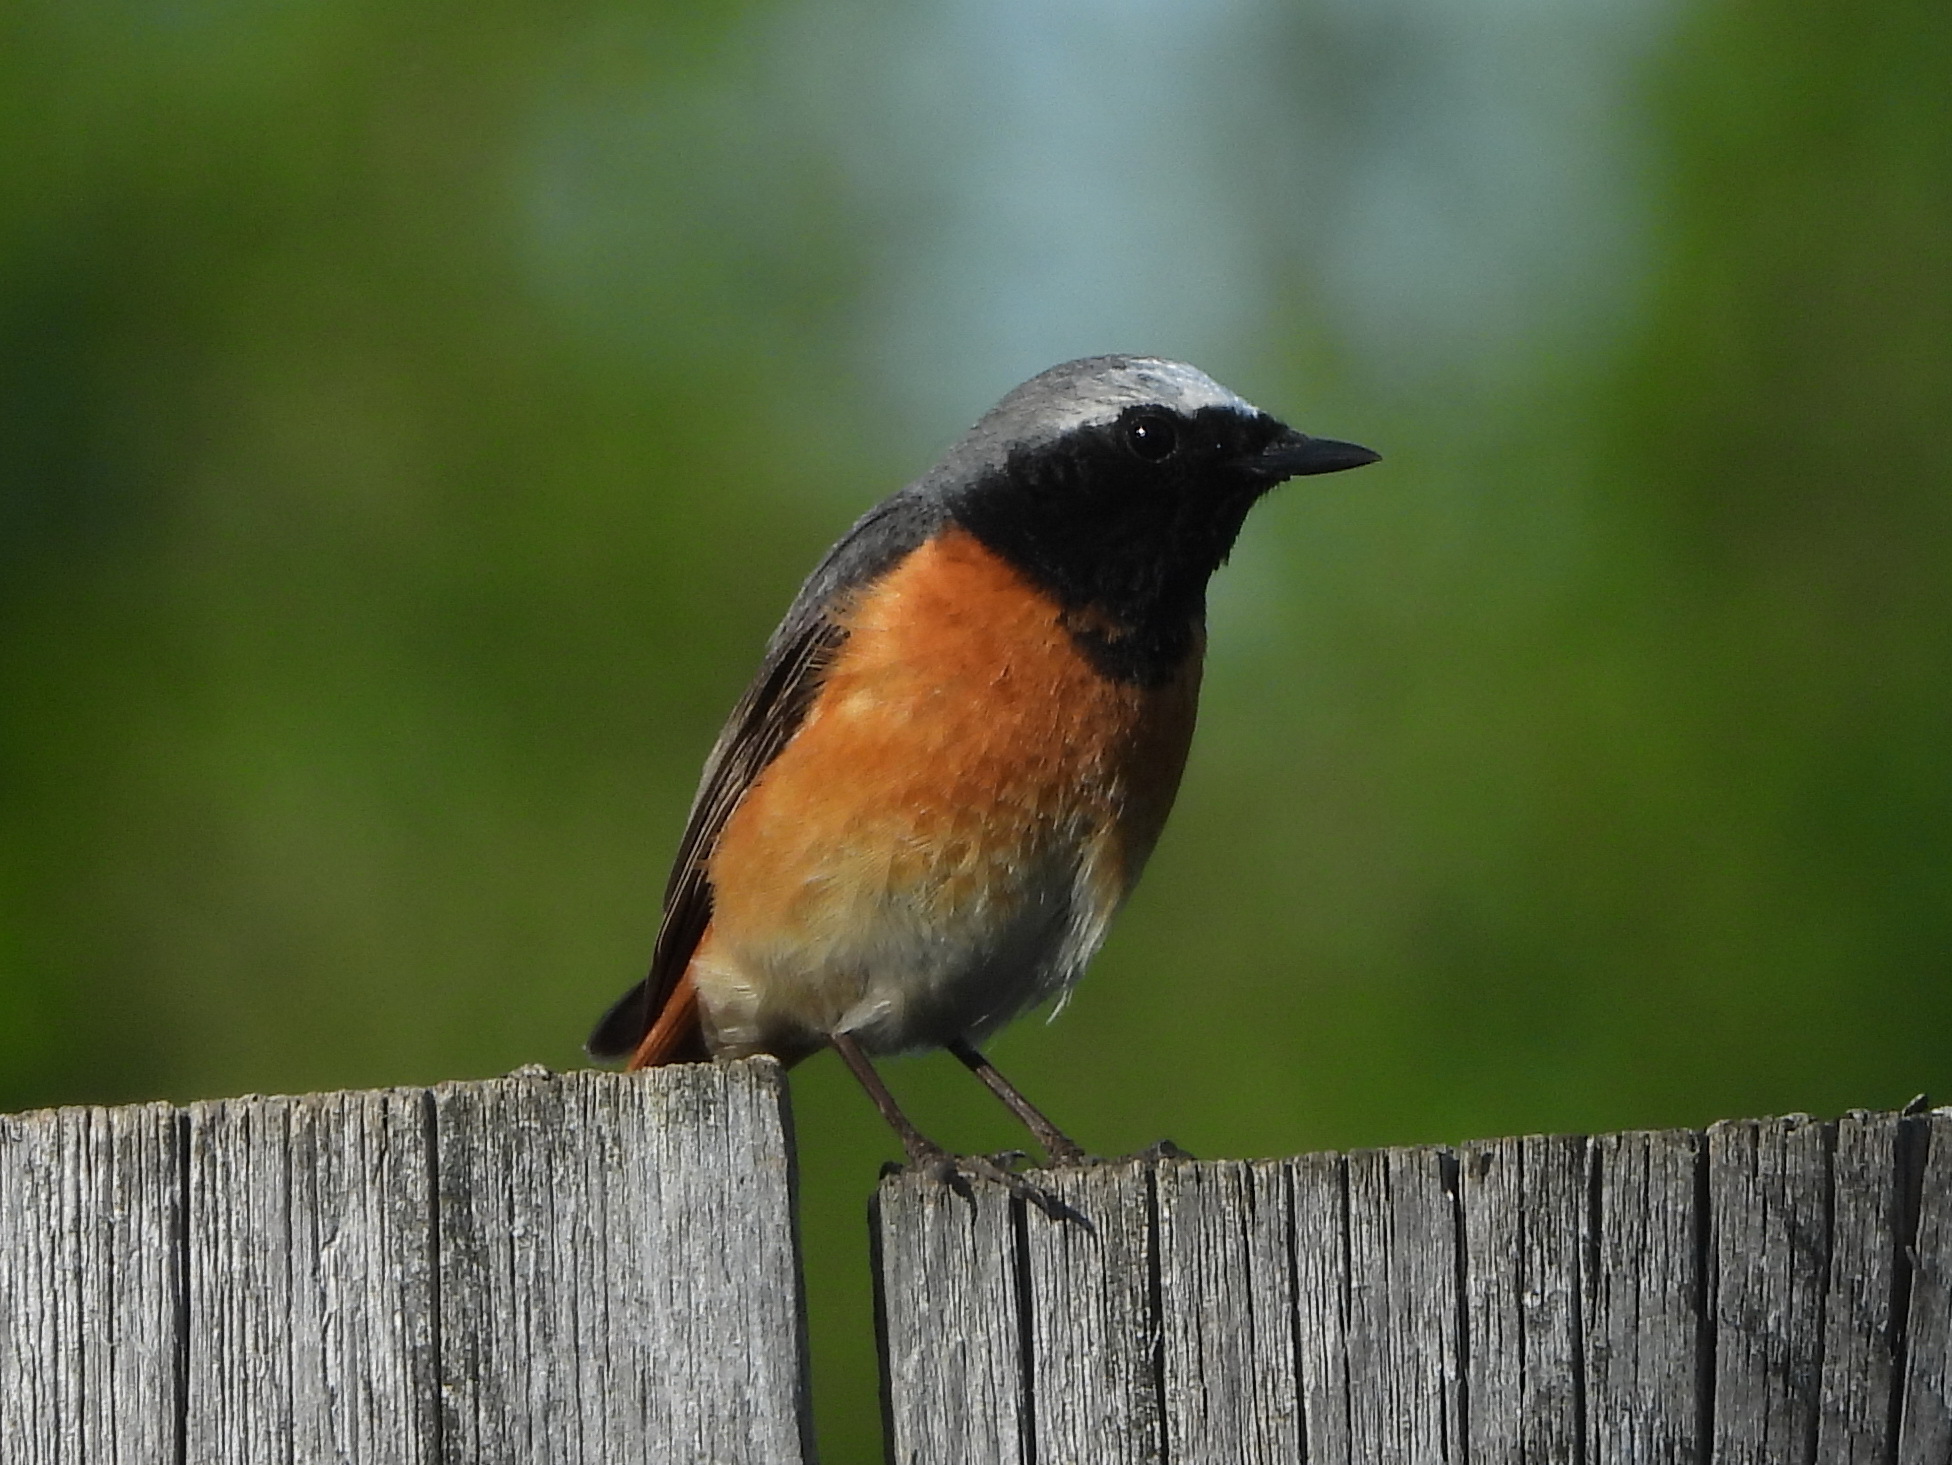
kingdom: Animalia
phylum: Chordata
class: Aves
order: Passeriformes
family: Muscicapidae
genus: Phoenicurus
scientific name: Phoenicurus phoenicurus
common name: Common redstart
